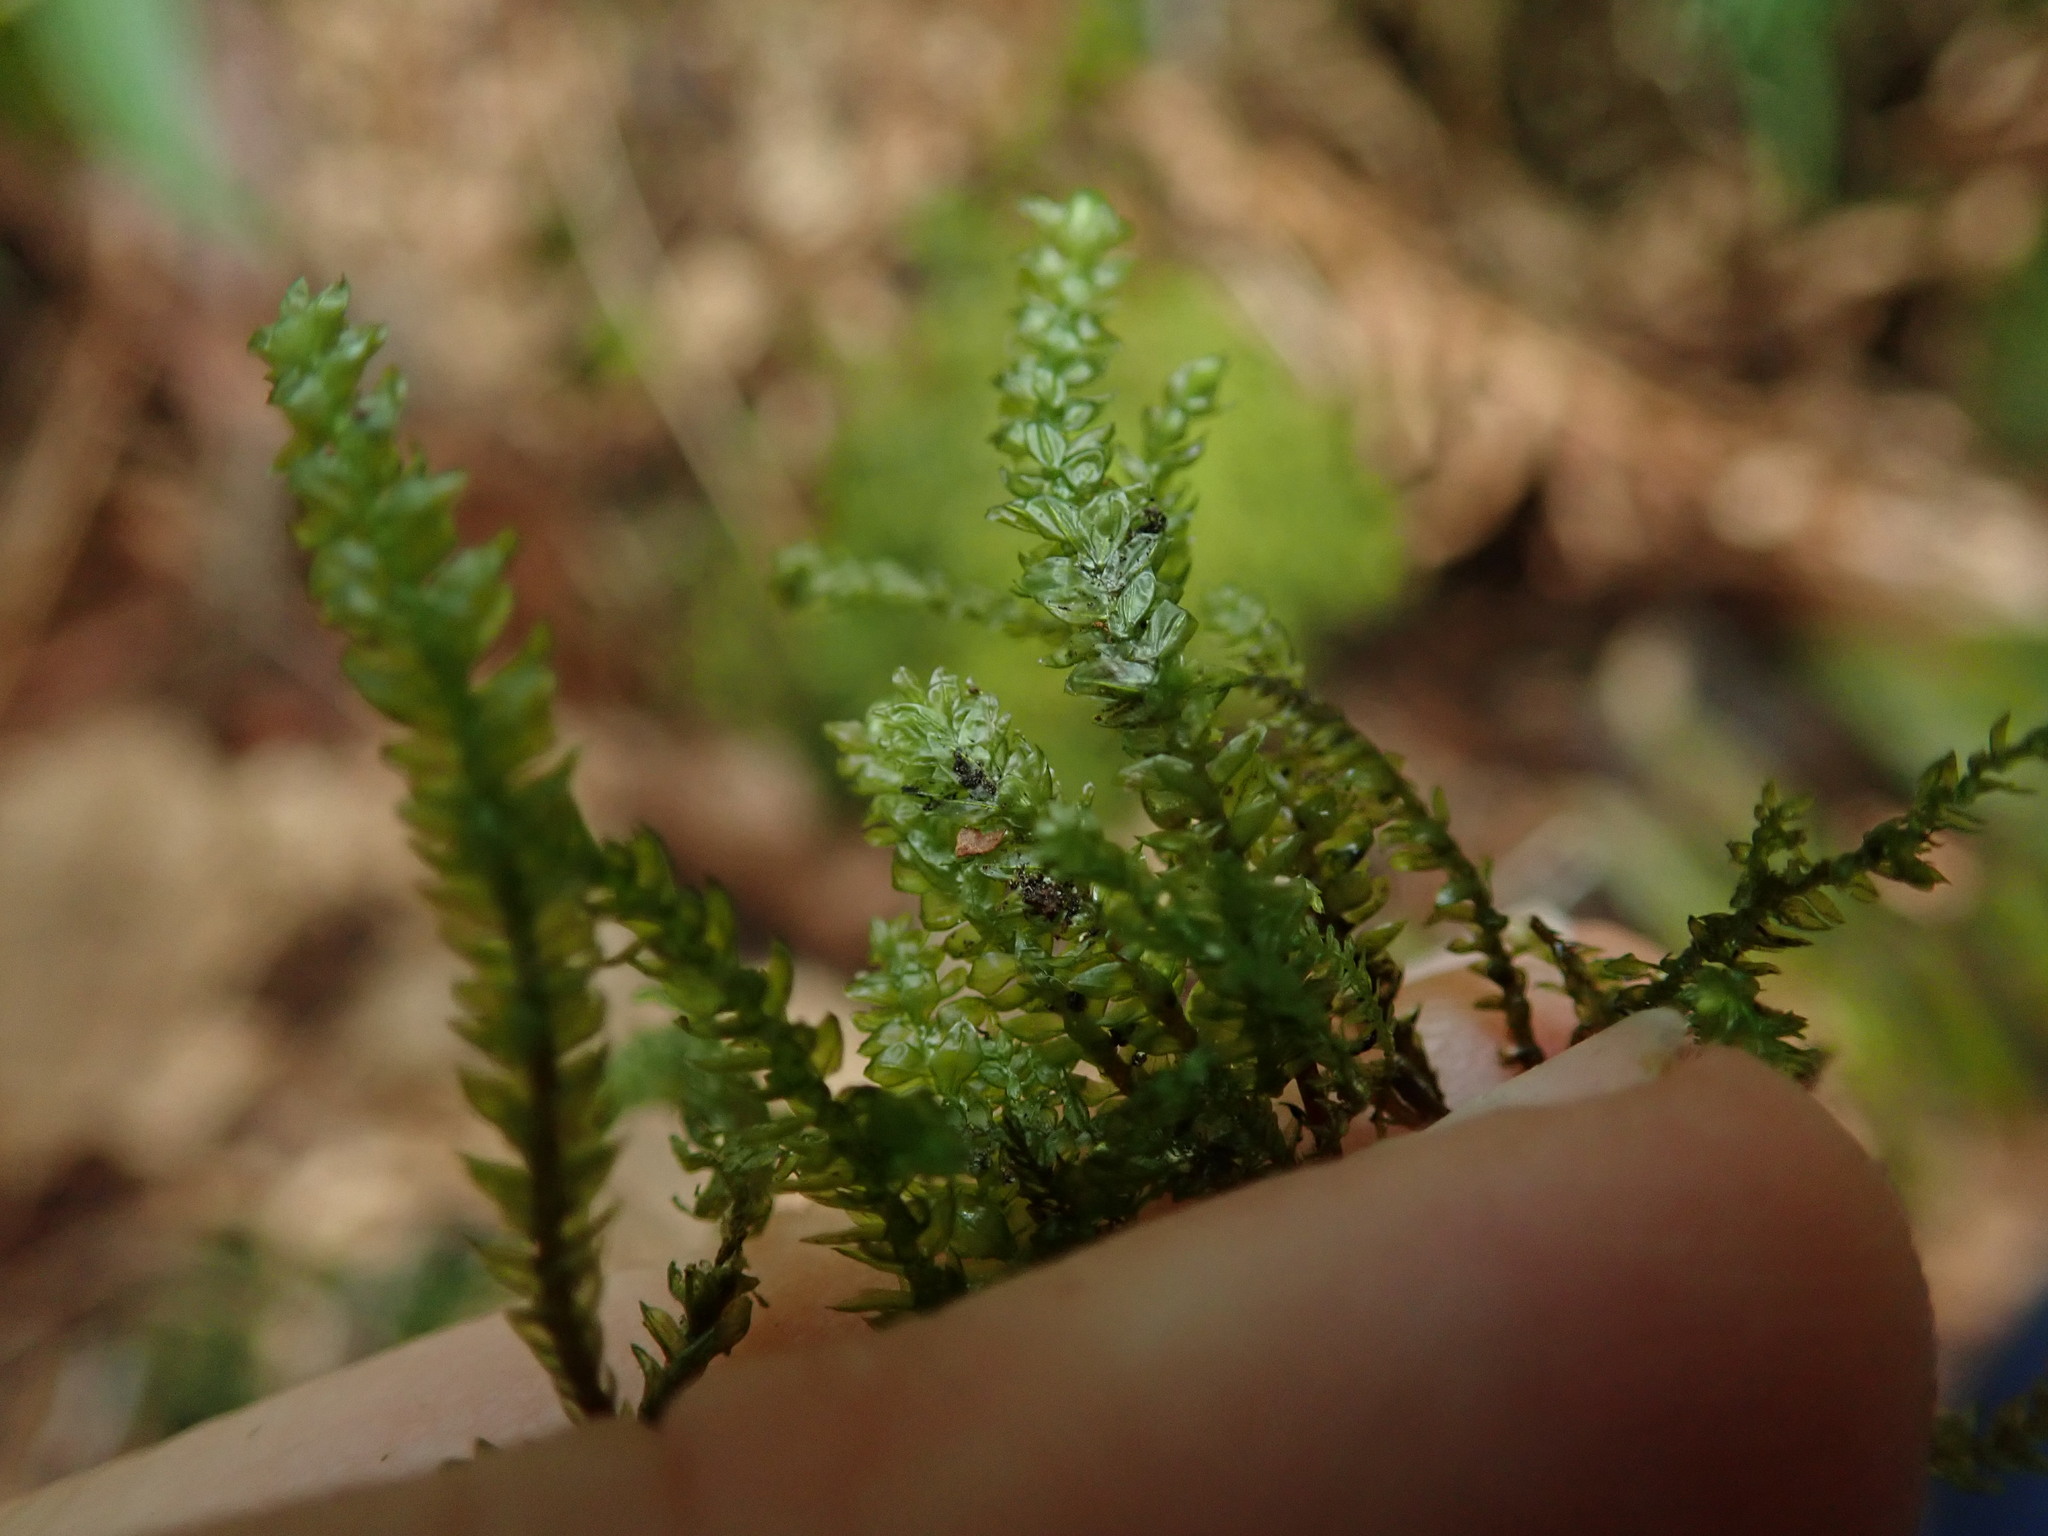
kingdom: Plantae
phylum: Bryophyta
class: Bryopsida
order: Hypnales
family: Neckeraceae
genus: Thamnobryum
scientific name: Thamnobryum neckeroides
